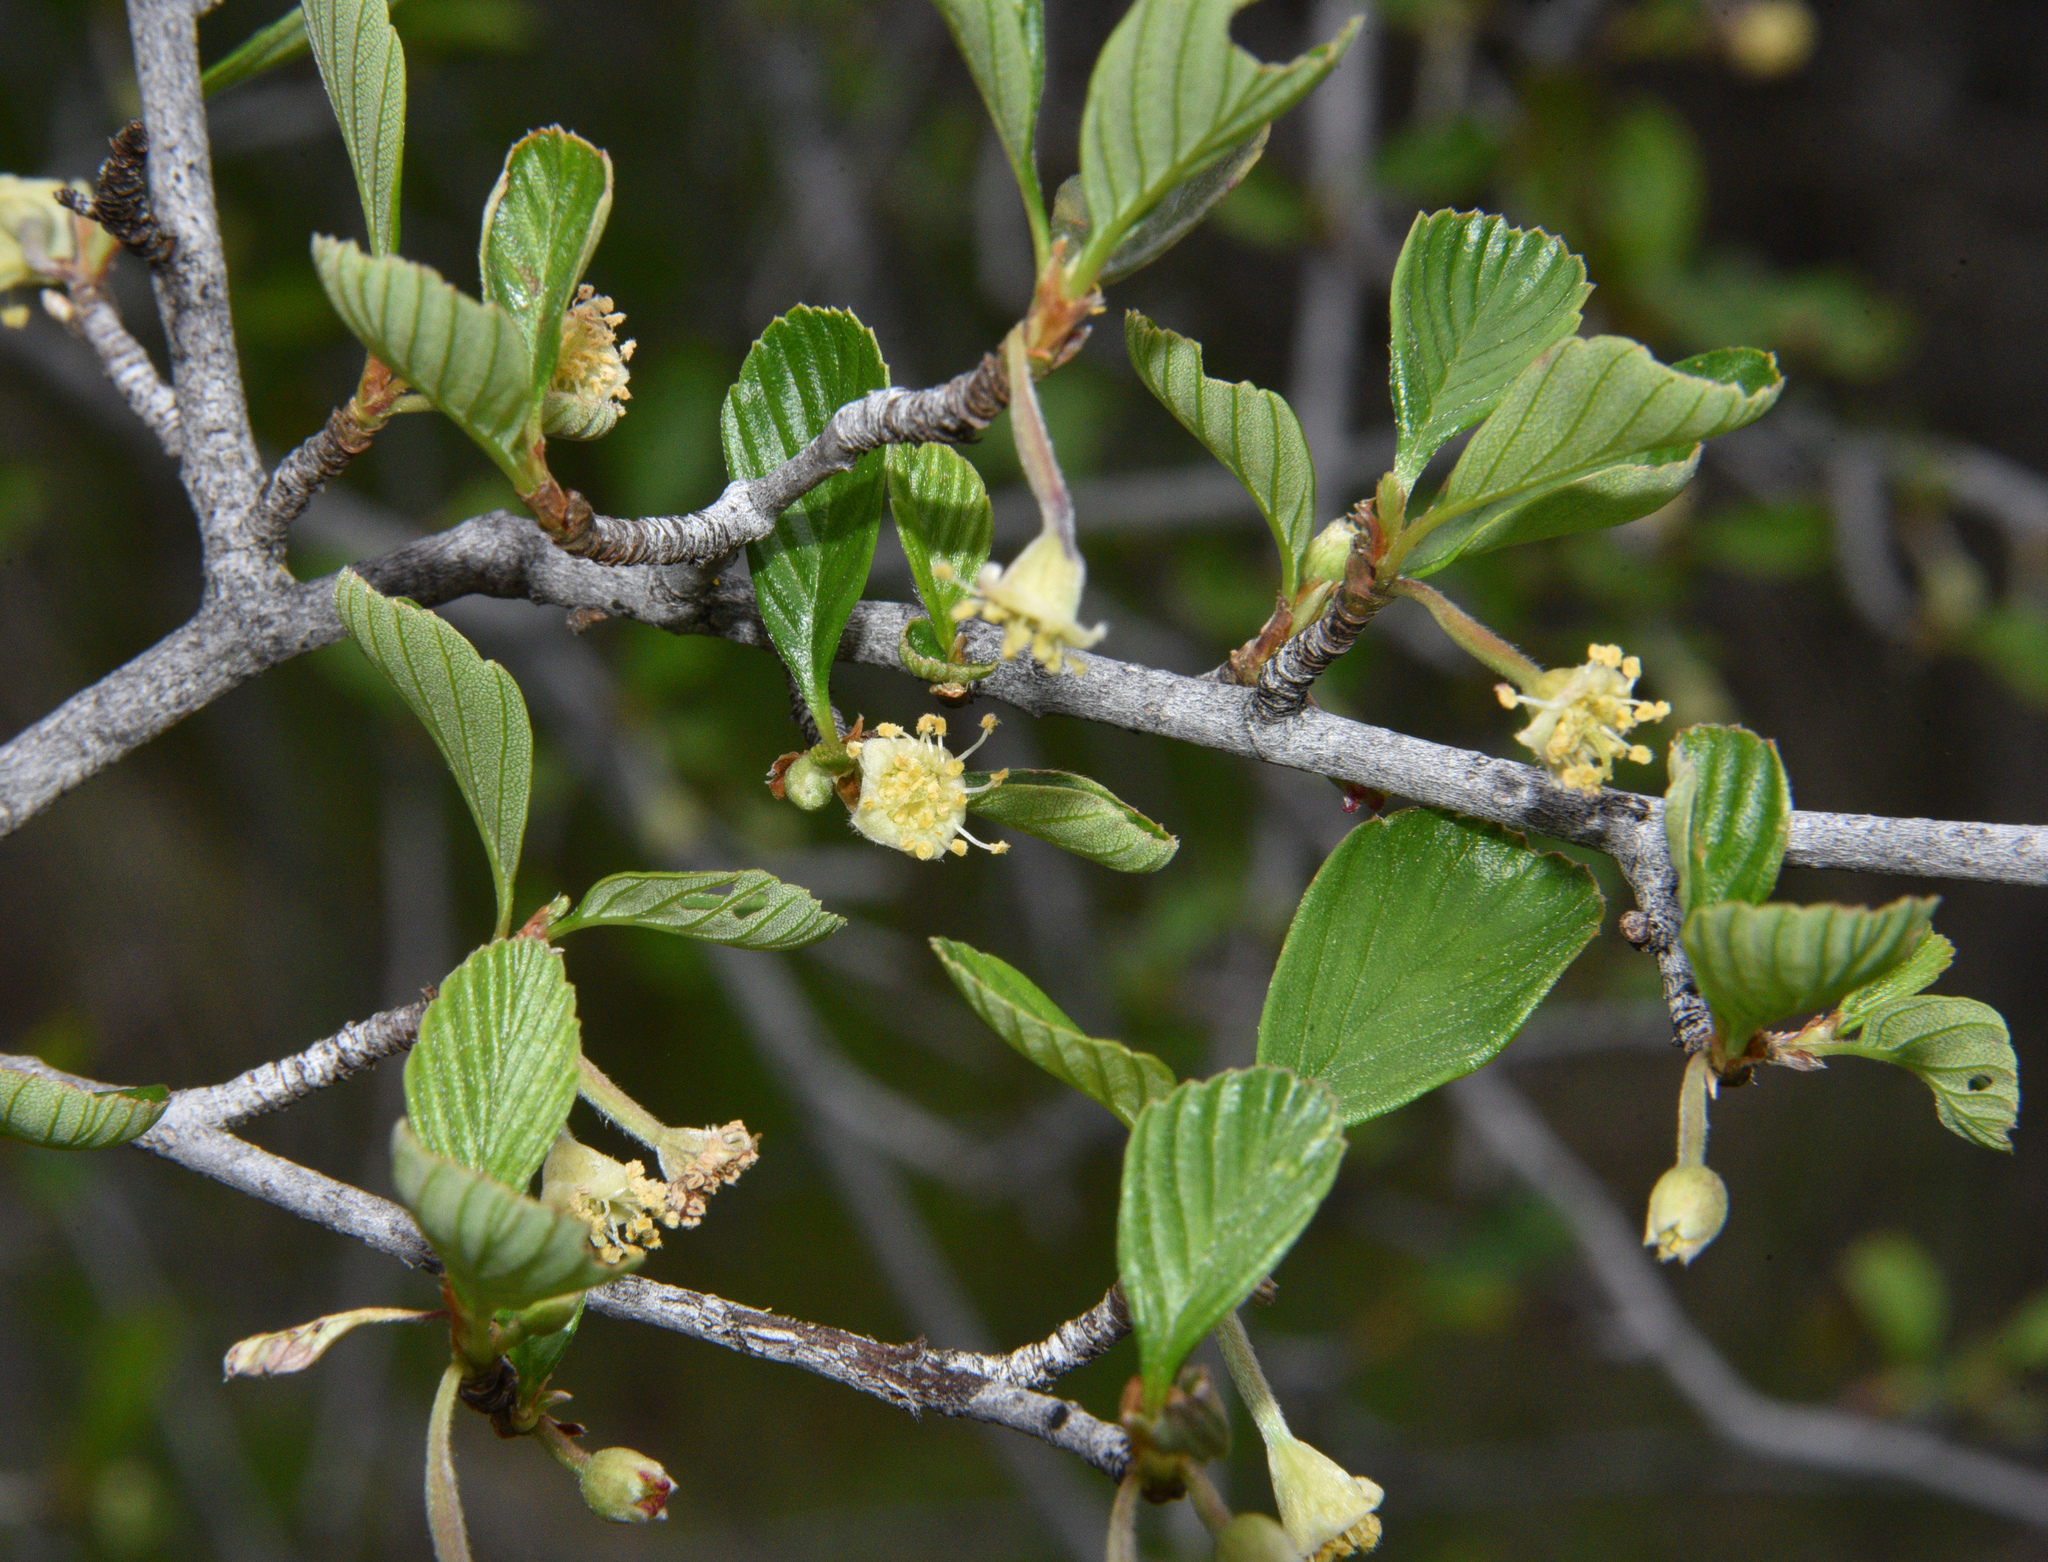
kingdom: Plantae
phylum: Tracheophyta
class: Magnoliopsida
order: Rosales
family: Rosaceae
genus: Cercocarpus
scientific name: Cercocarpus betuloides
